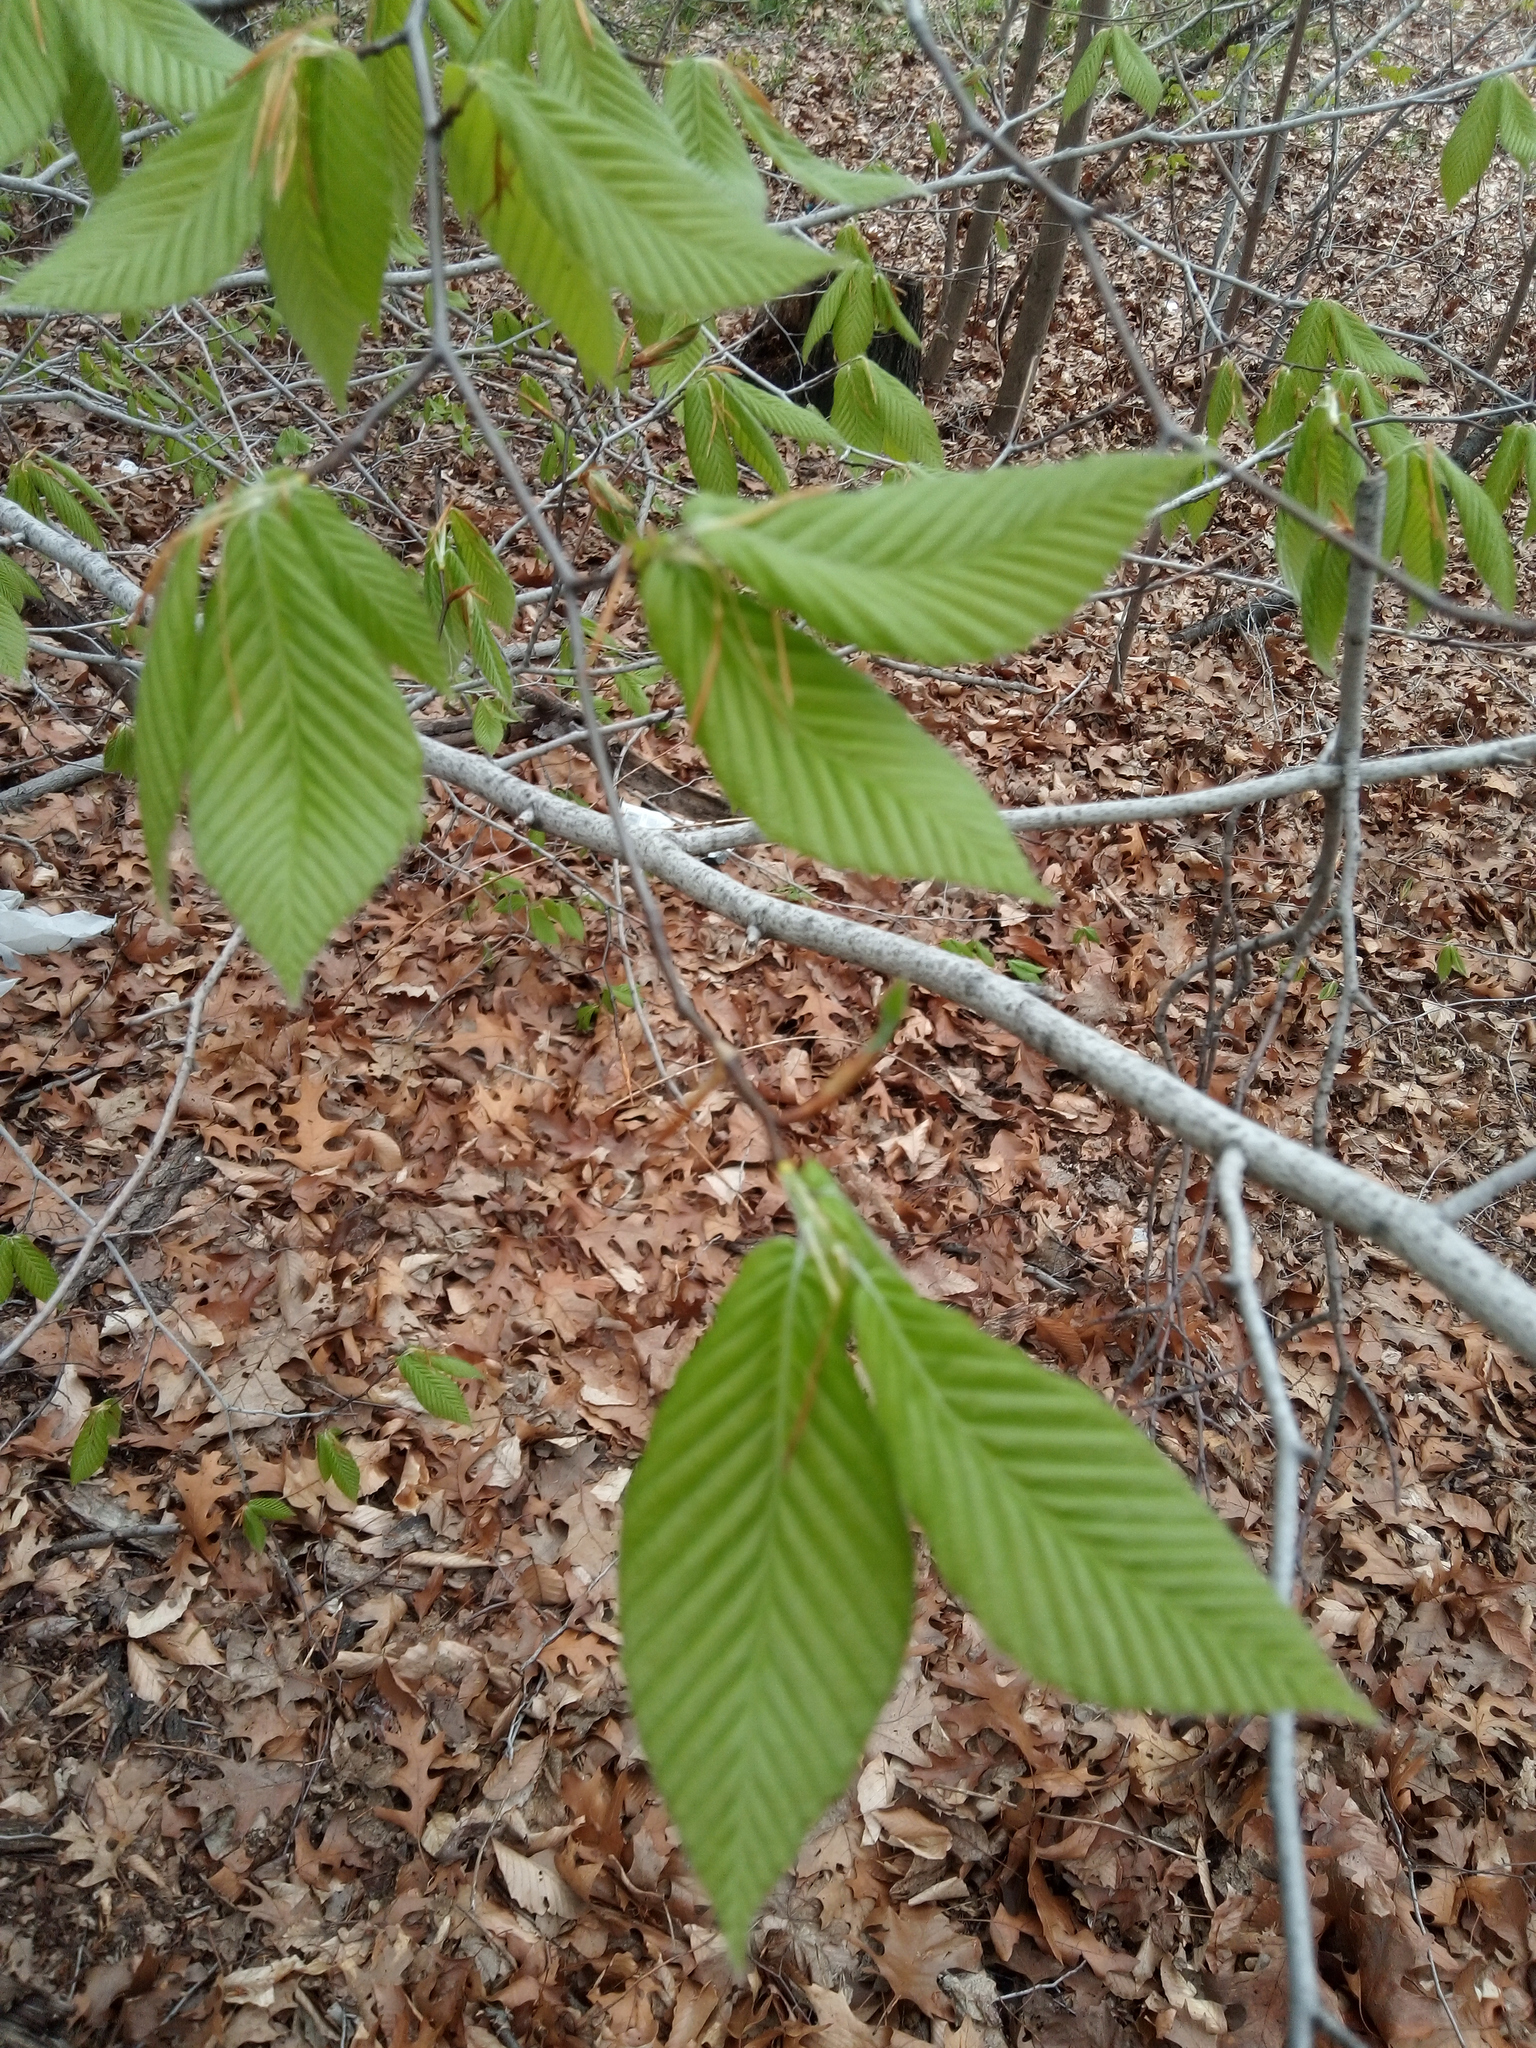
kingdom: Plantae
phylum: Tracheophyta
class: Magnoliopsida
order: Fagales
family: Fagaceae
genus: Fagus
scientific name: Fagus grandifolia
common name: American beech
